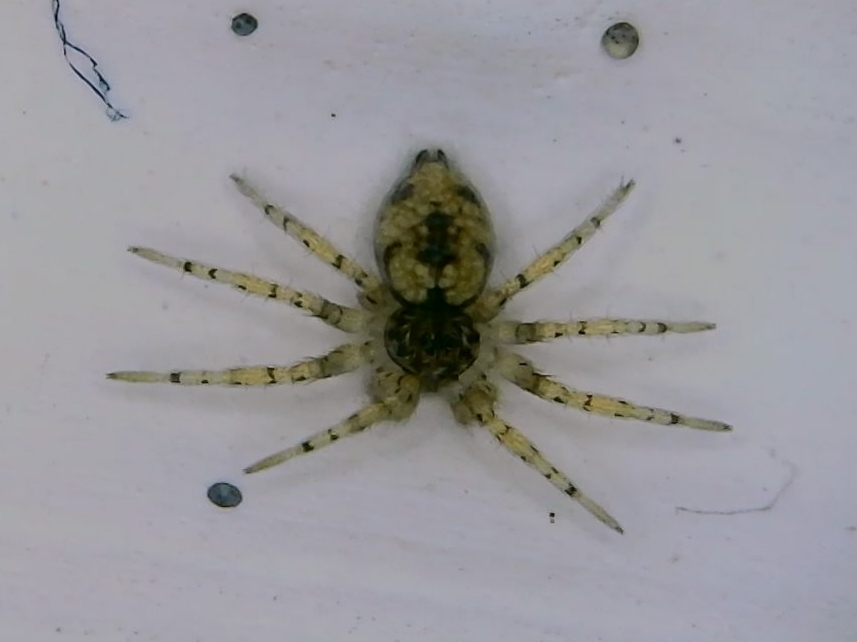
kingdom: Animalia
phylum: Arthropoda
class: Arachnida
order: Araneae
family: Oecobiidae
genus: Oecobius
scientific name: Oecobius maculatus
